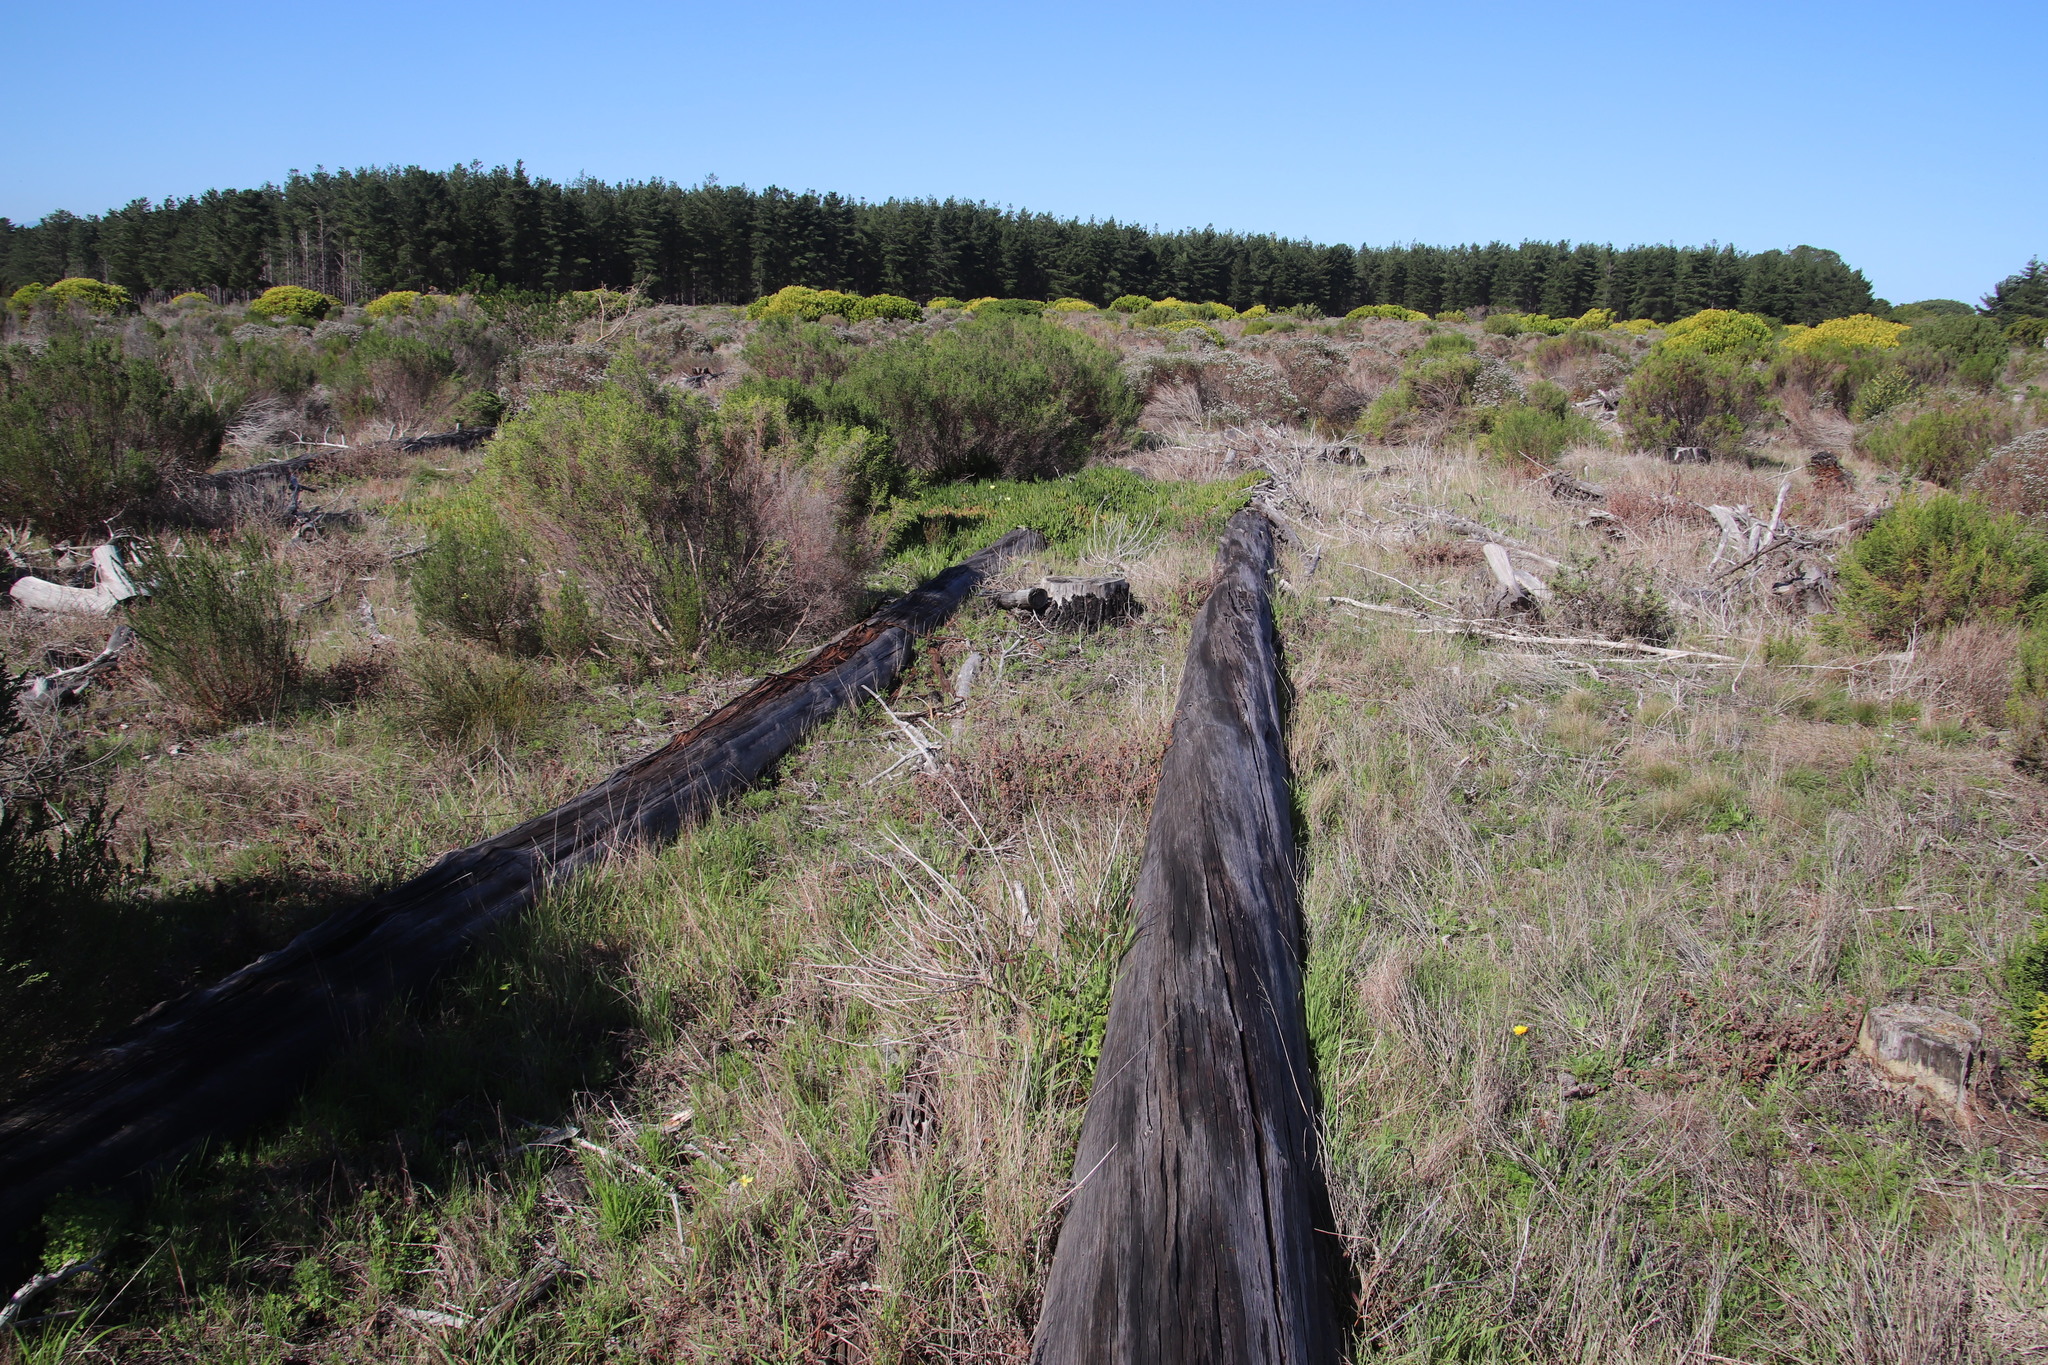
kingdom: Plantae
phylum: Tracheophyta
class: Magnoliopsida
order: Malvales
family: Thymelaeaceae
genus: Passerina
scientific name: Passerina corymbosa
